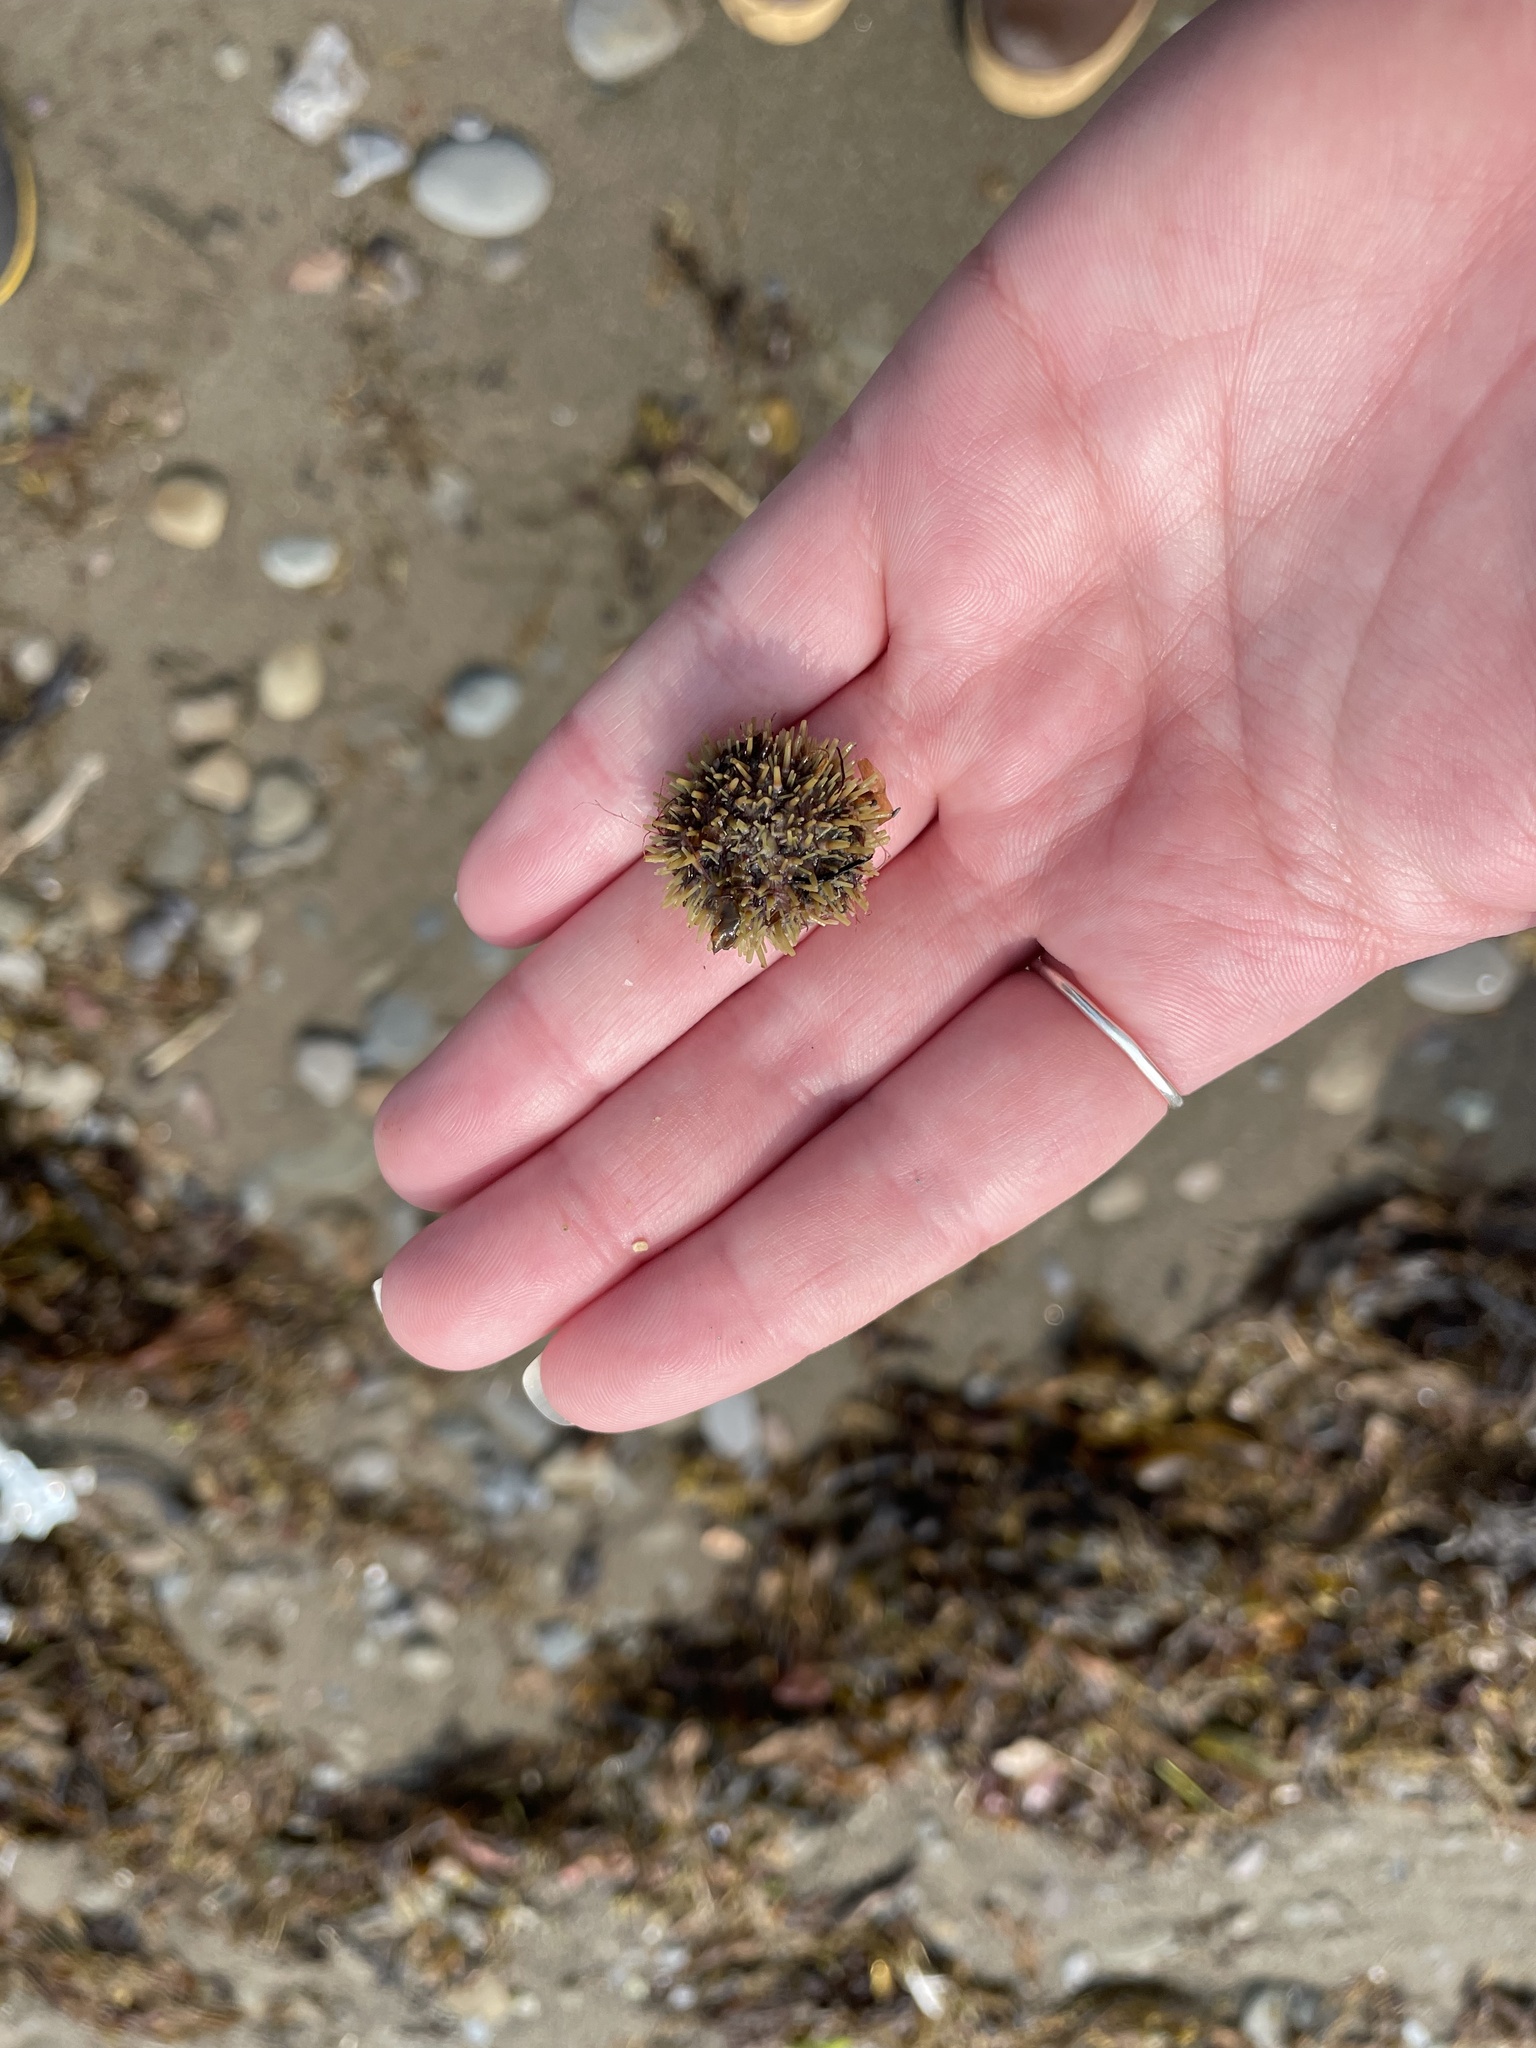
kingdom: Animalia
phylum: Echinodermata
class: Echinoidea
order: Camarodonta
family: Strongylocentrotidae
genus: Strongylocentrotus
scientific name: Strongylocentrotus droebachiensis
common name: Northern sea urchin
